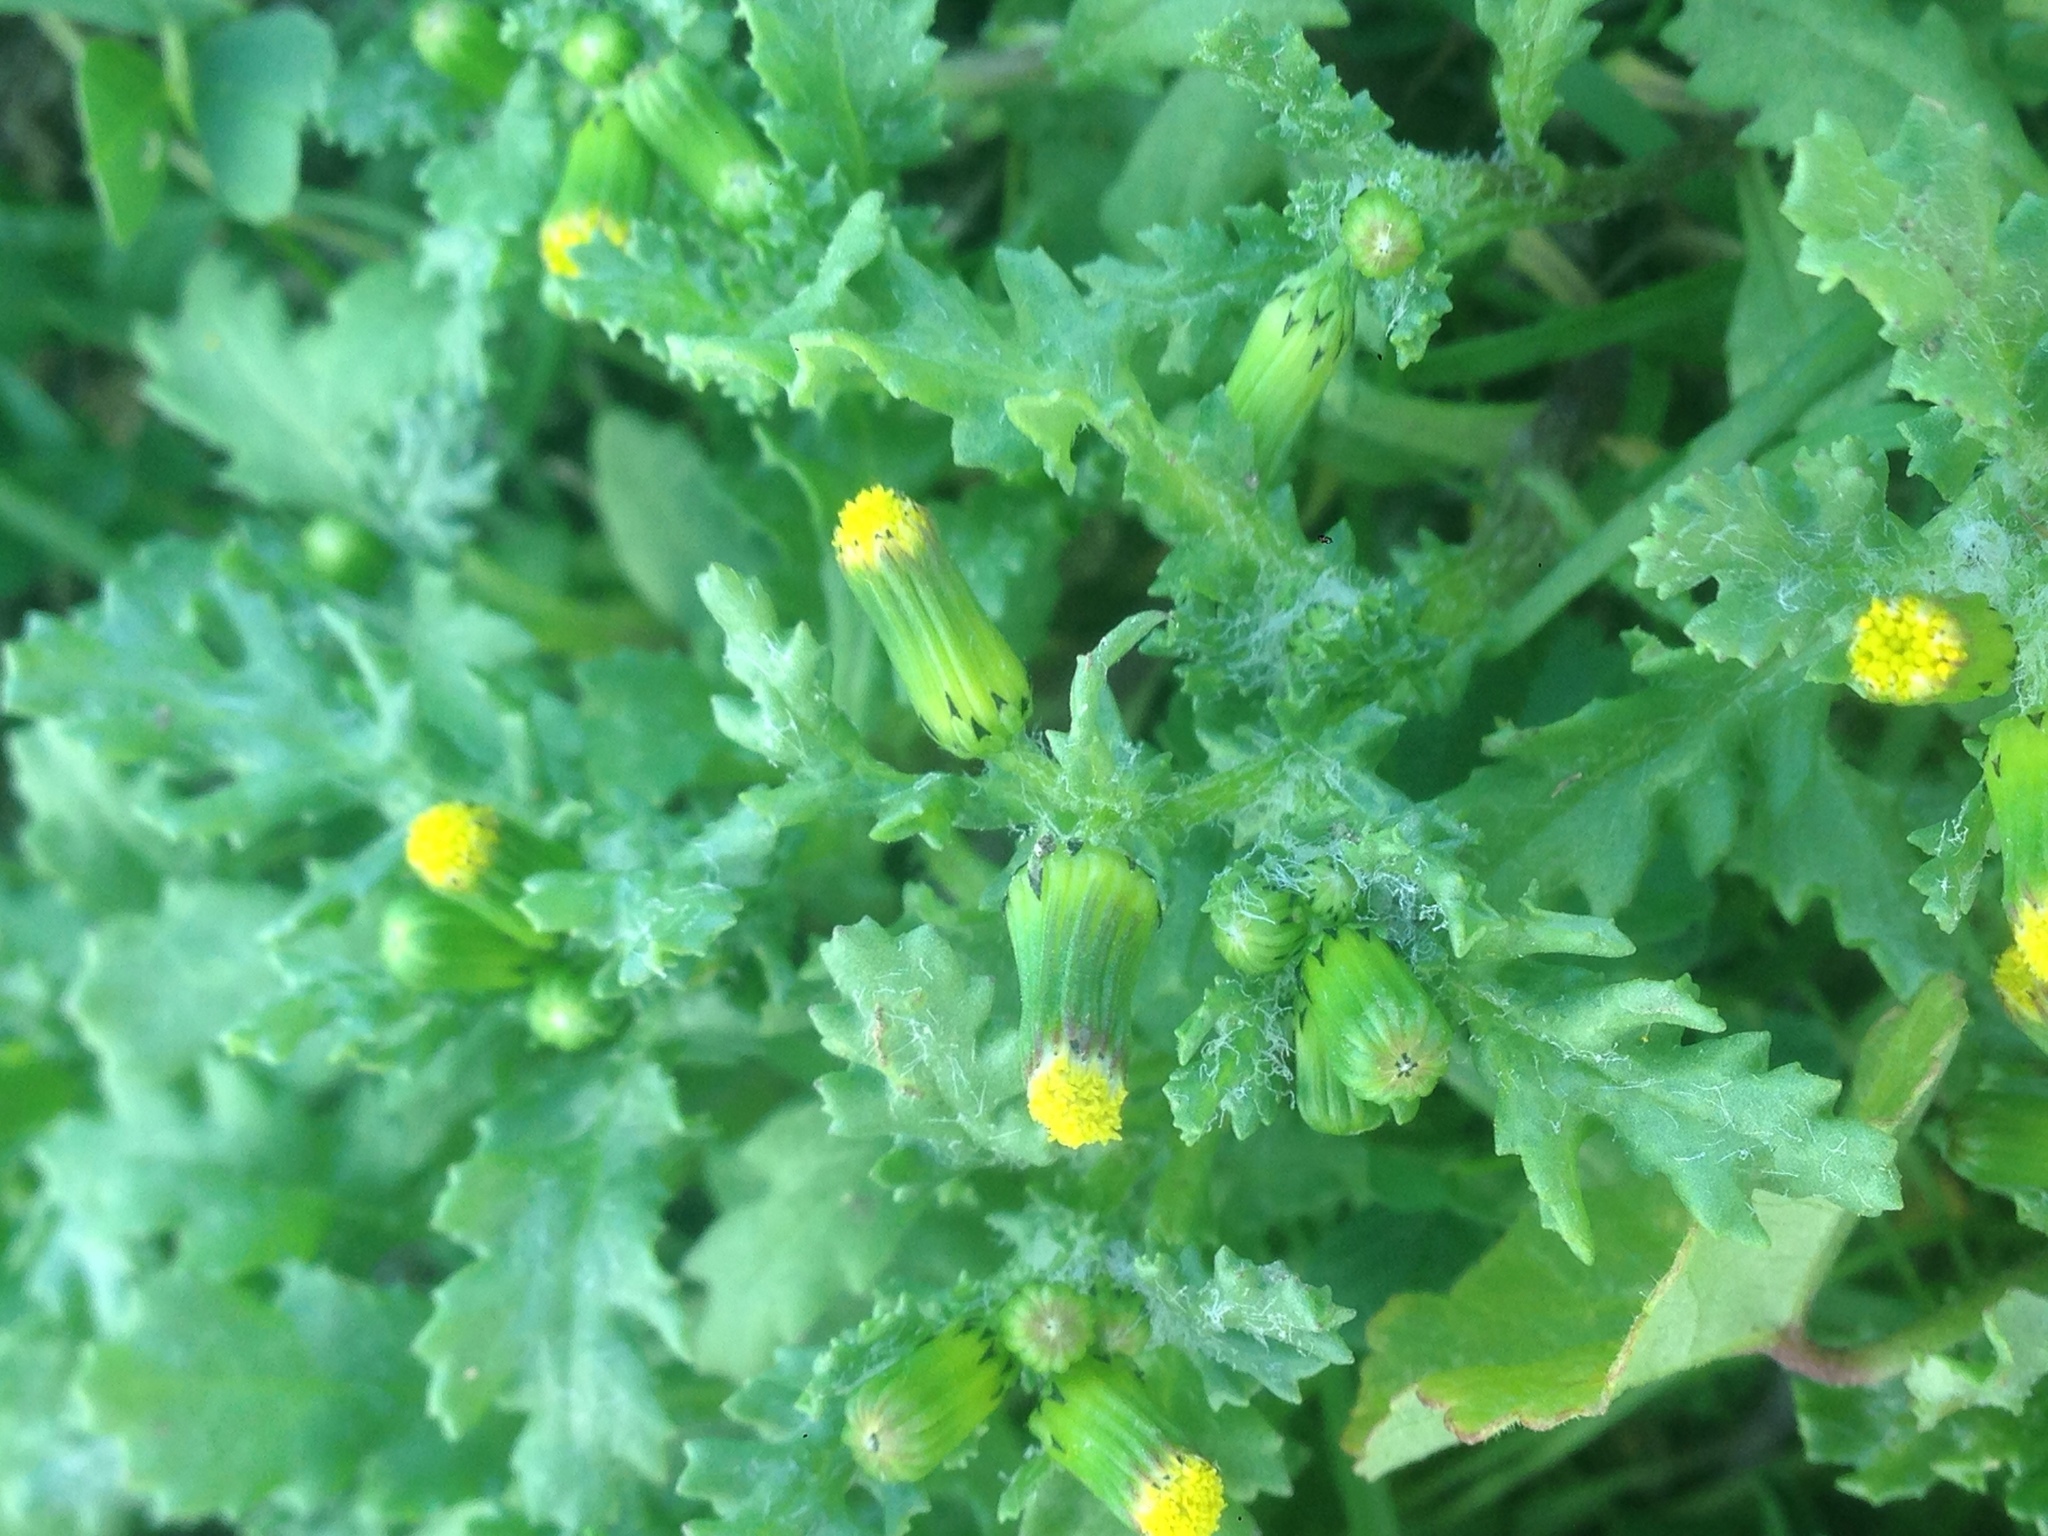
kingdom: Plantae
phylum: Tracheophyta
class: Magnoliopsida
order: Asterales
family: Asteraceae
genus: Senecio
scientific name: Senecio vulgaris
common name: Old-man-in-the-spring
